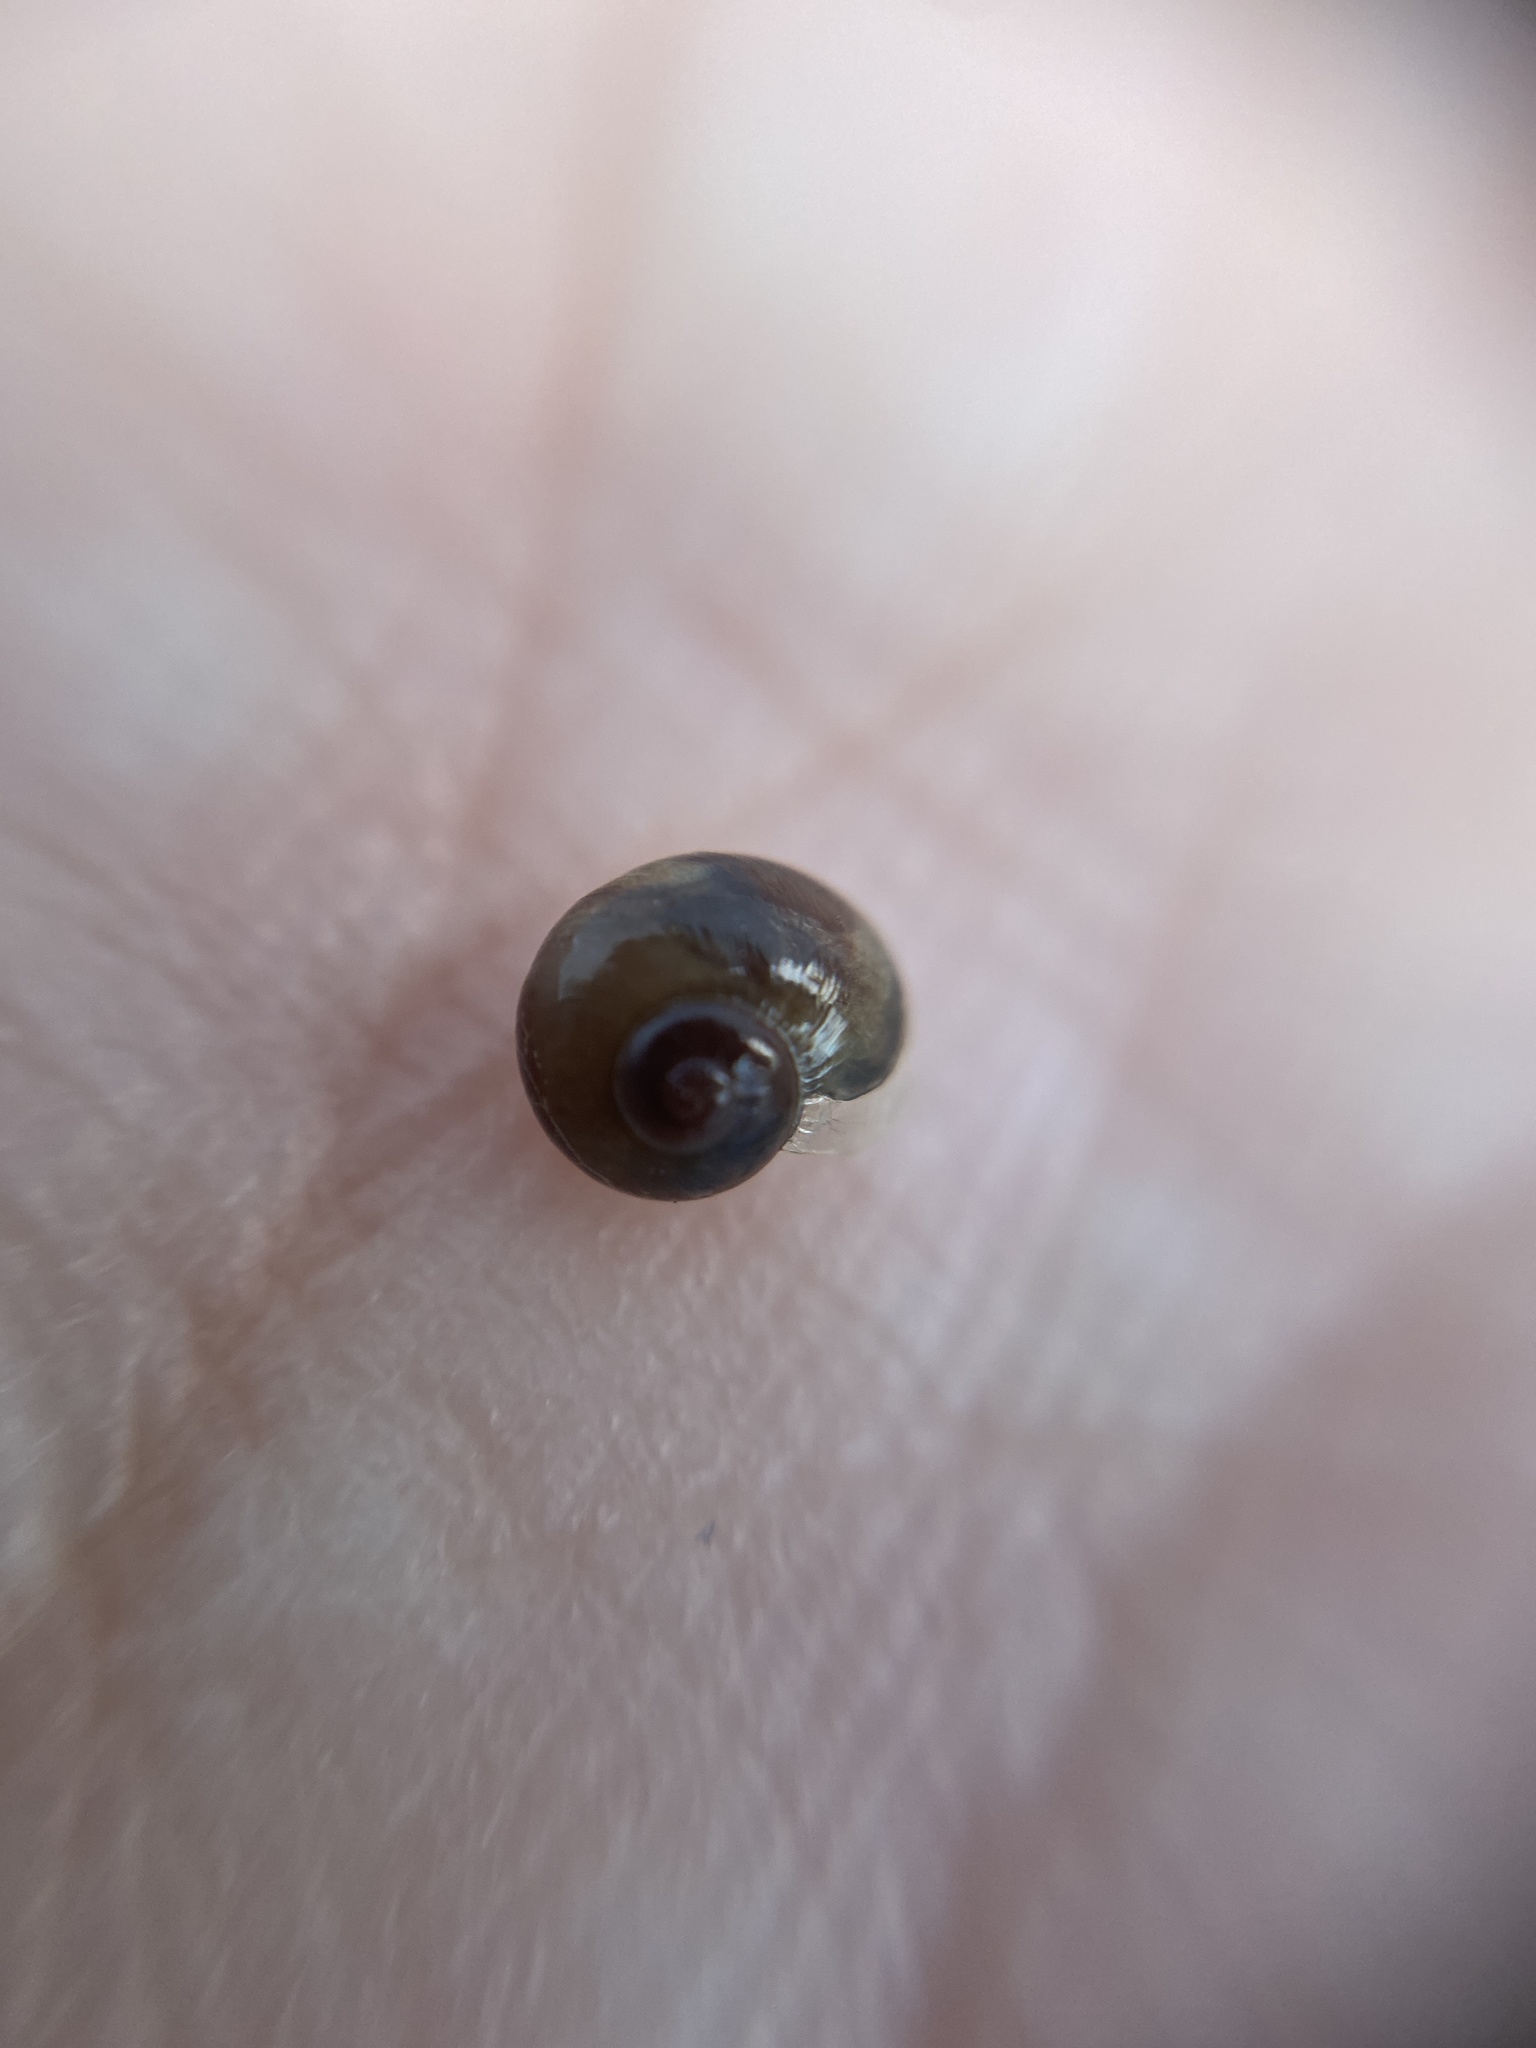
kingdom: Animalia
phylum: Mollusca
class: Gastropoda
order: Stylommatophora
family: Vitrinidae
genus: Vitrina
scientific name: Vitrina pellucida
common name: Pellucid glass snail
